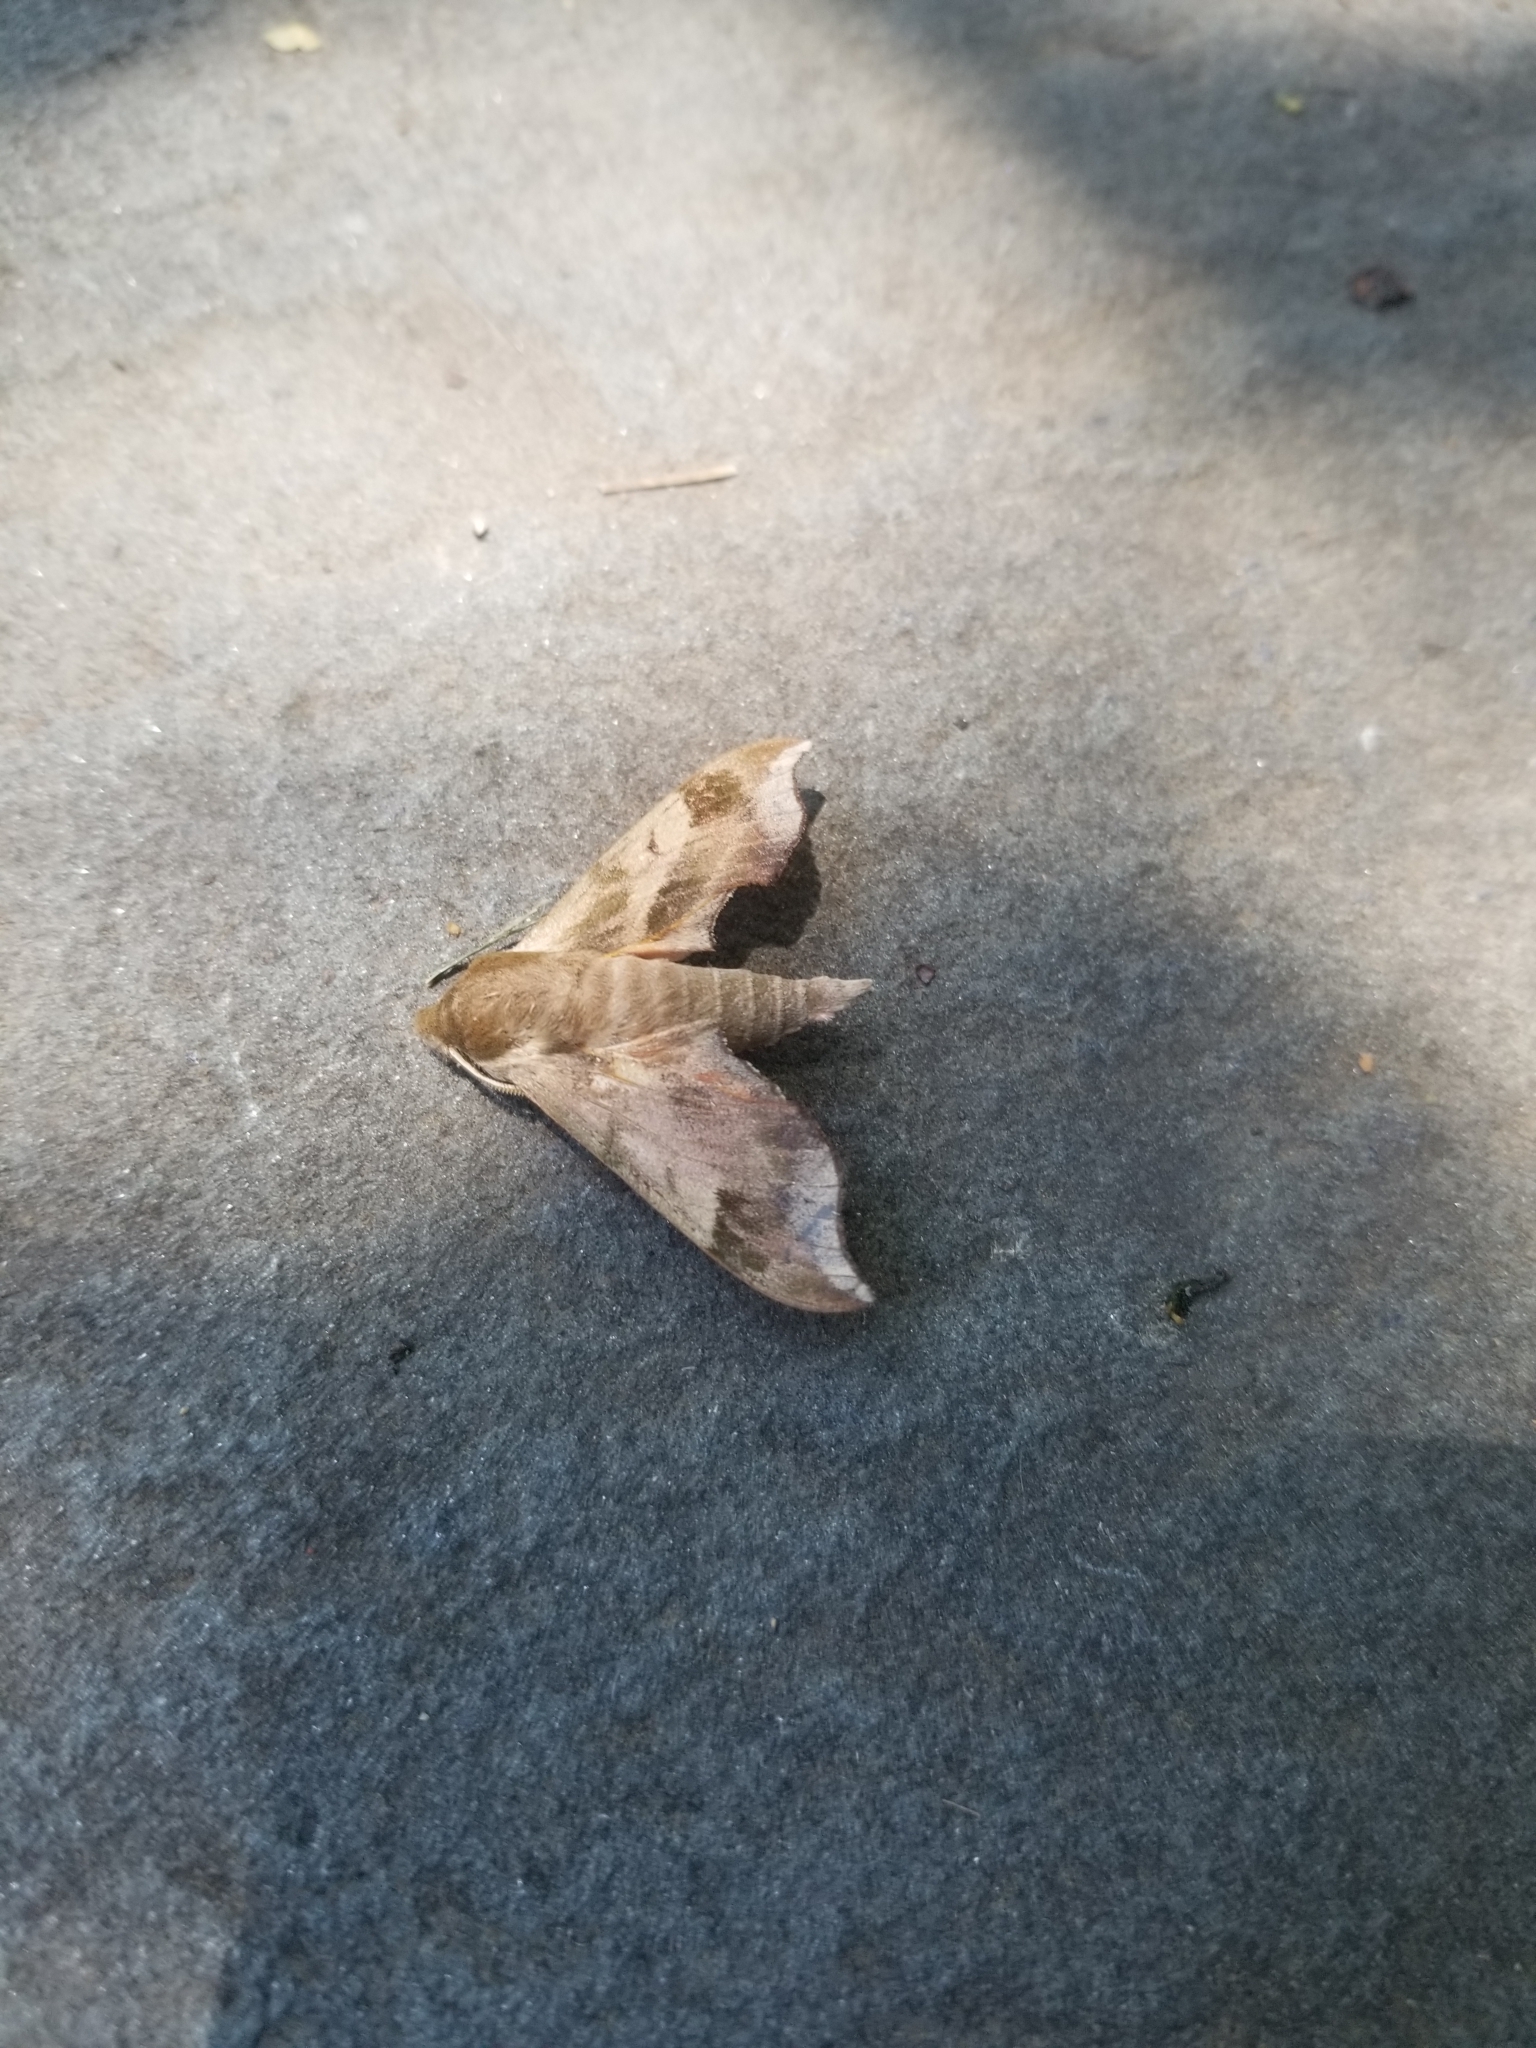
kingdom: Animalia
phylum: Arthropoda
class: Insecta
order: Lepidoptera
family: Sphingidae
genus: Darapsa
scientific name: Darapsa myron
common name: Hog sphinx
